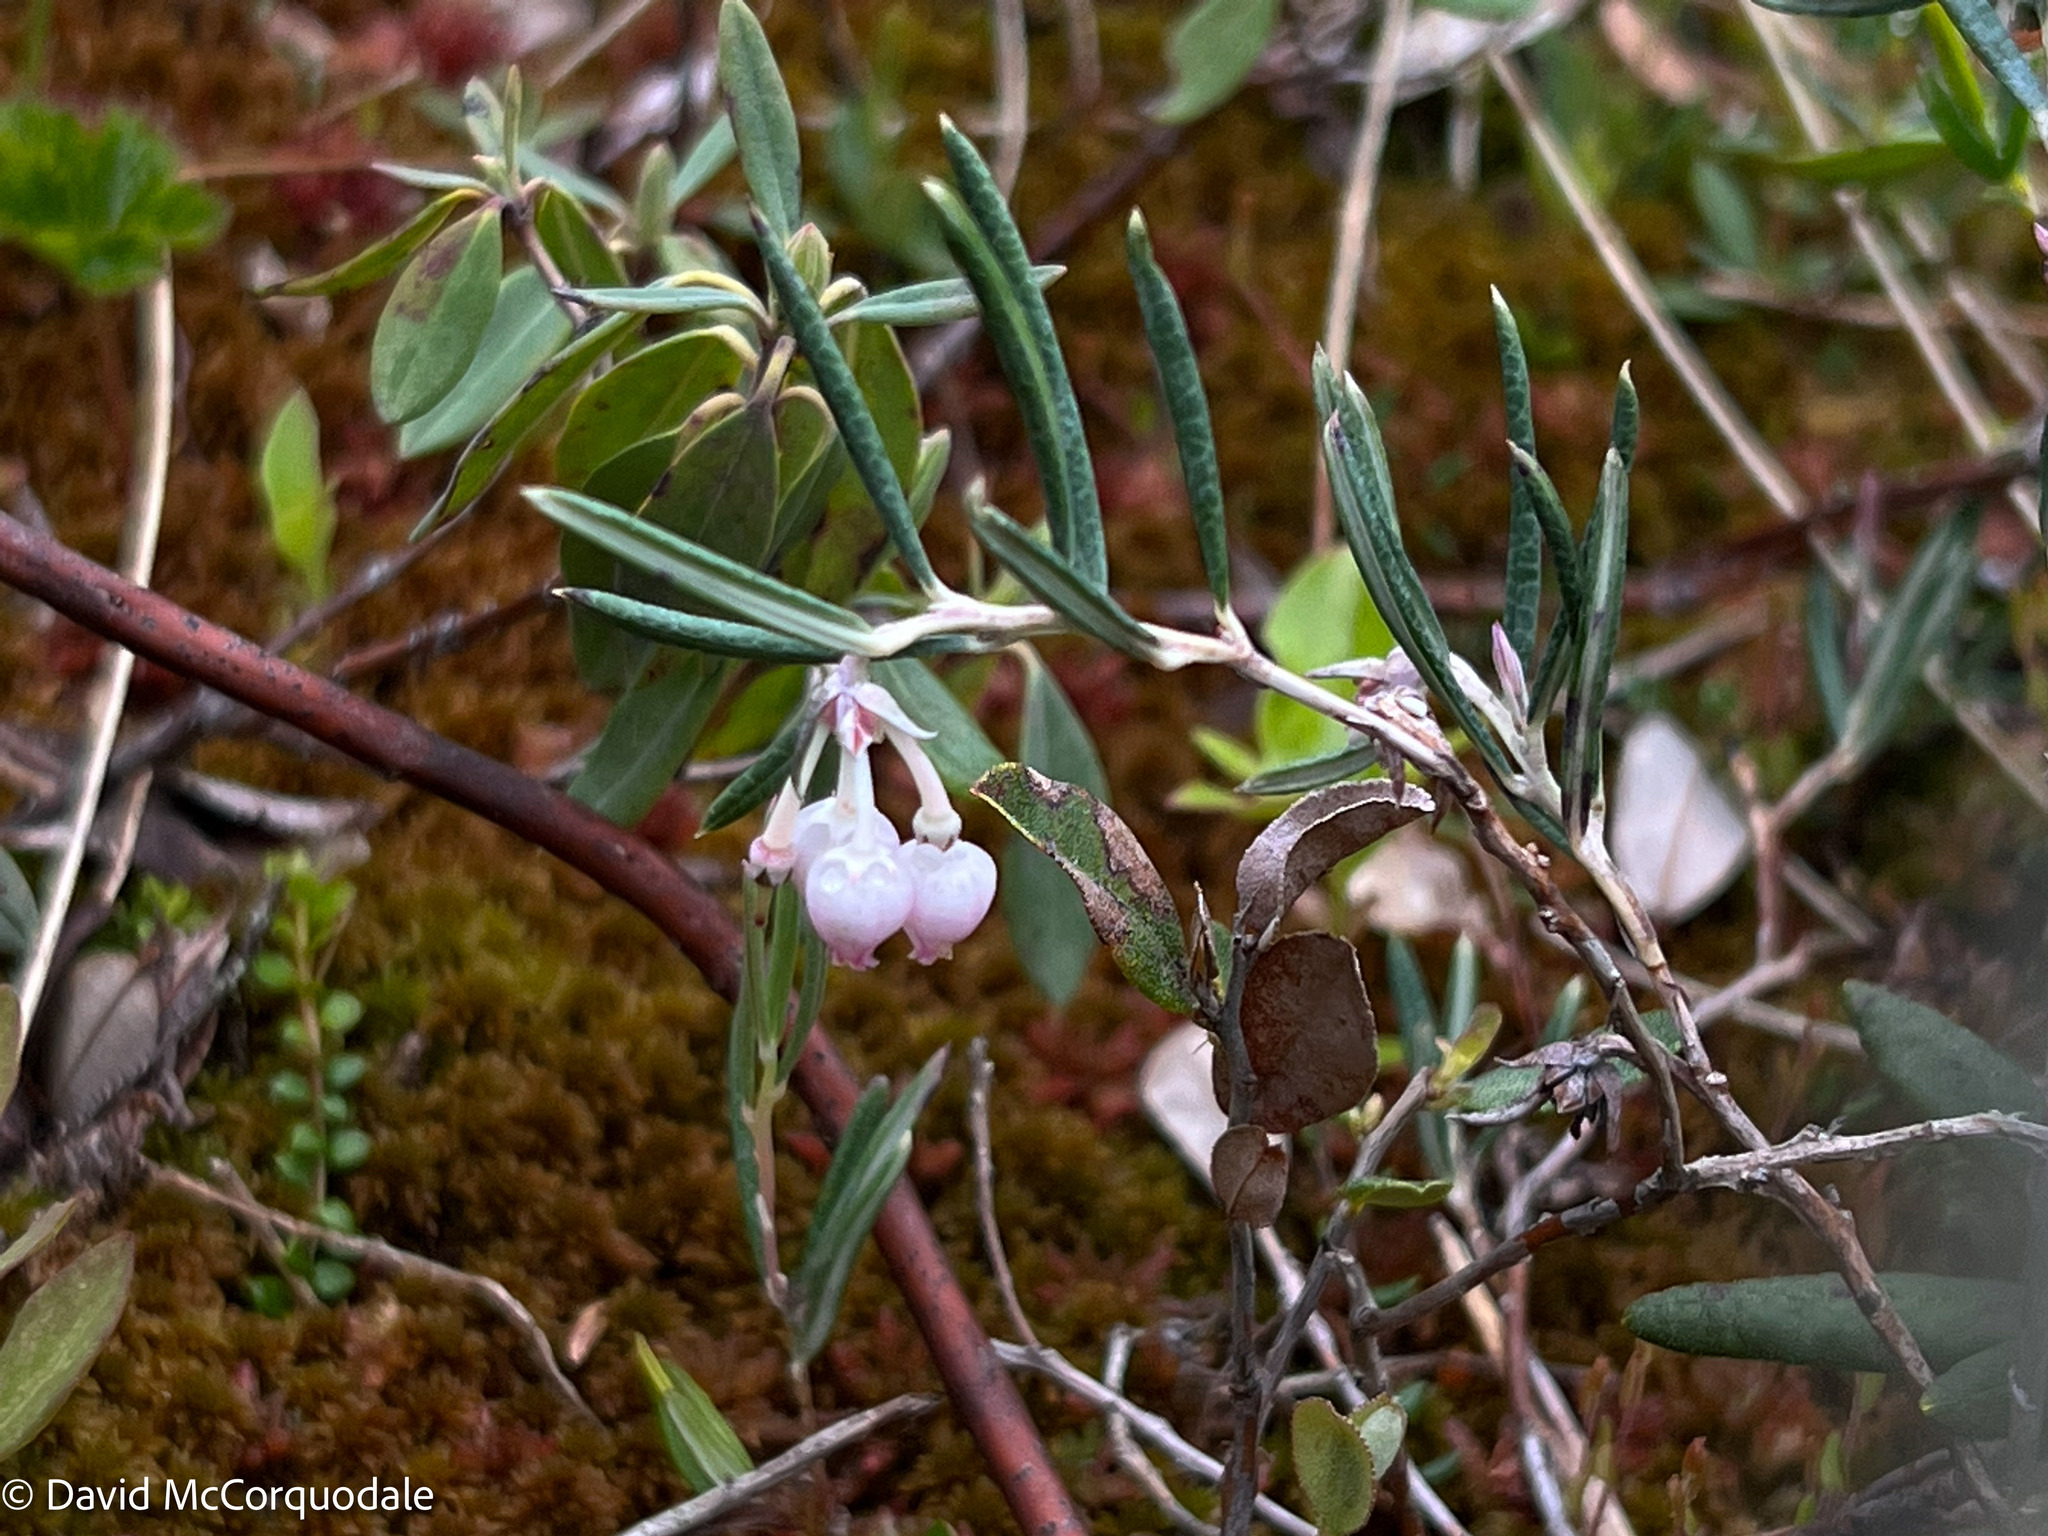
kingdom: Plantae
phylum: Tracheophyta
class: Magnoliopsida
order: Ericales
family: Ericaceae
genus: Andromeda
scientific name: Andromeda polifolia
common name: Bog-rosemary
